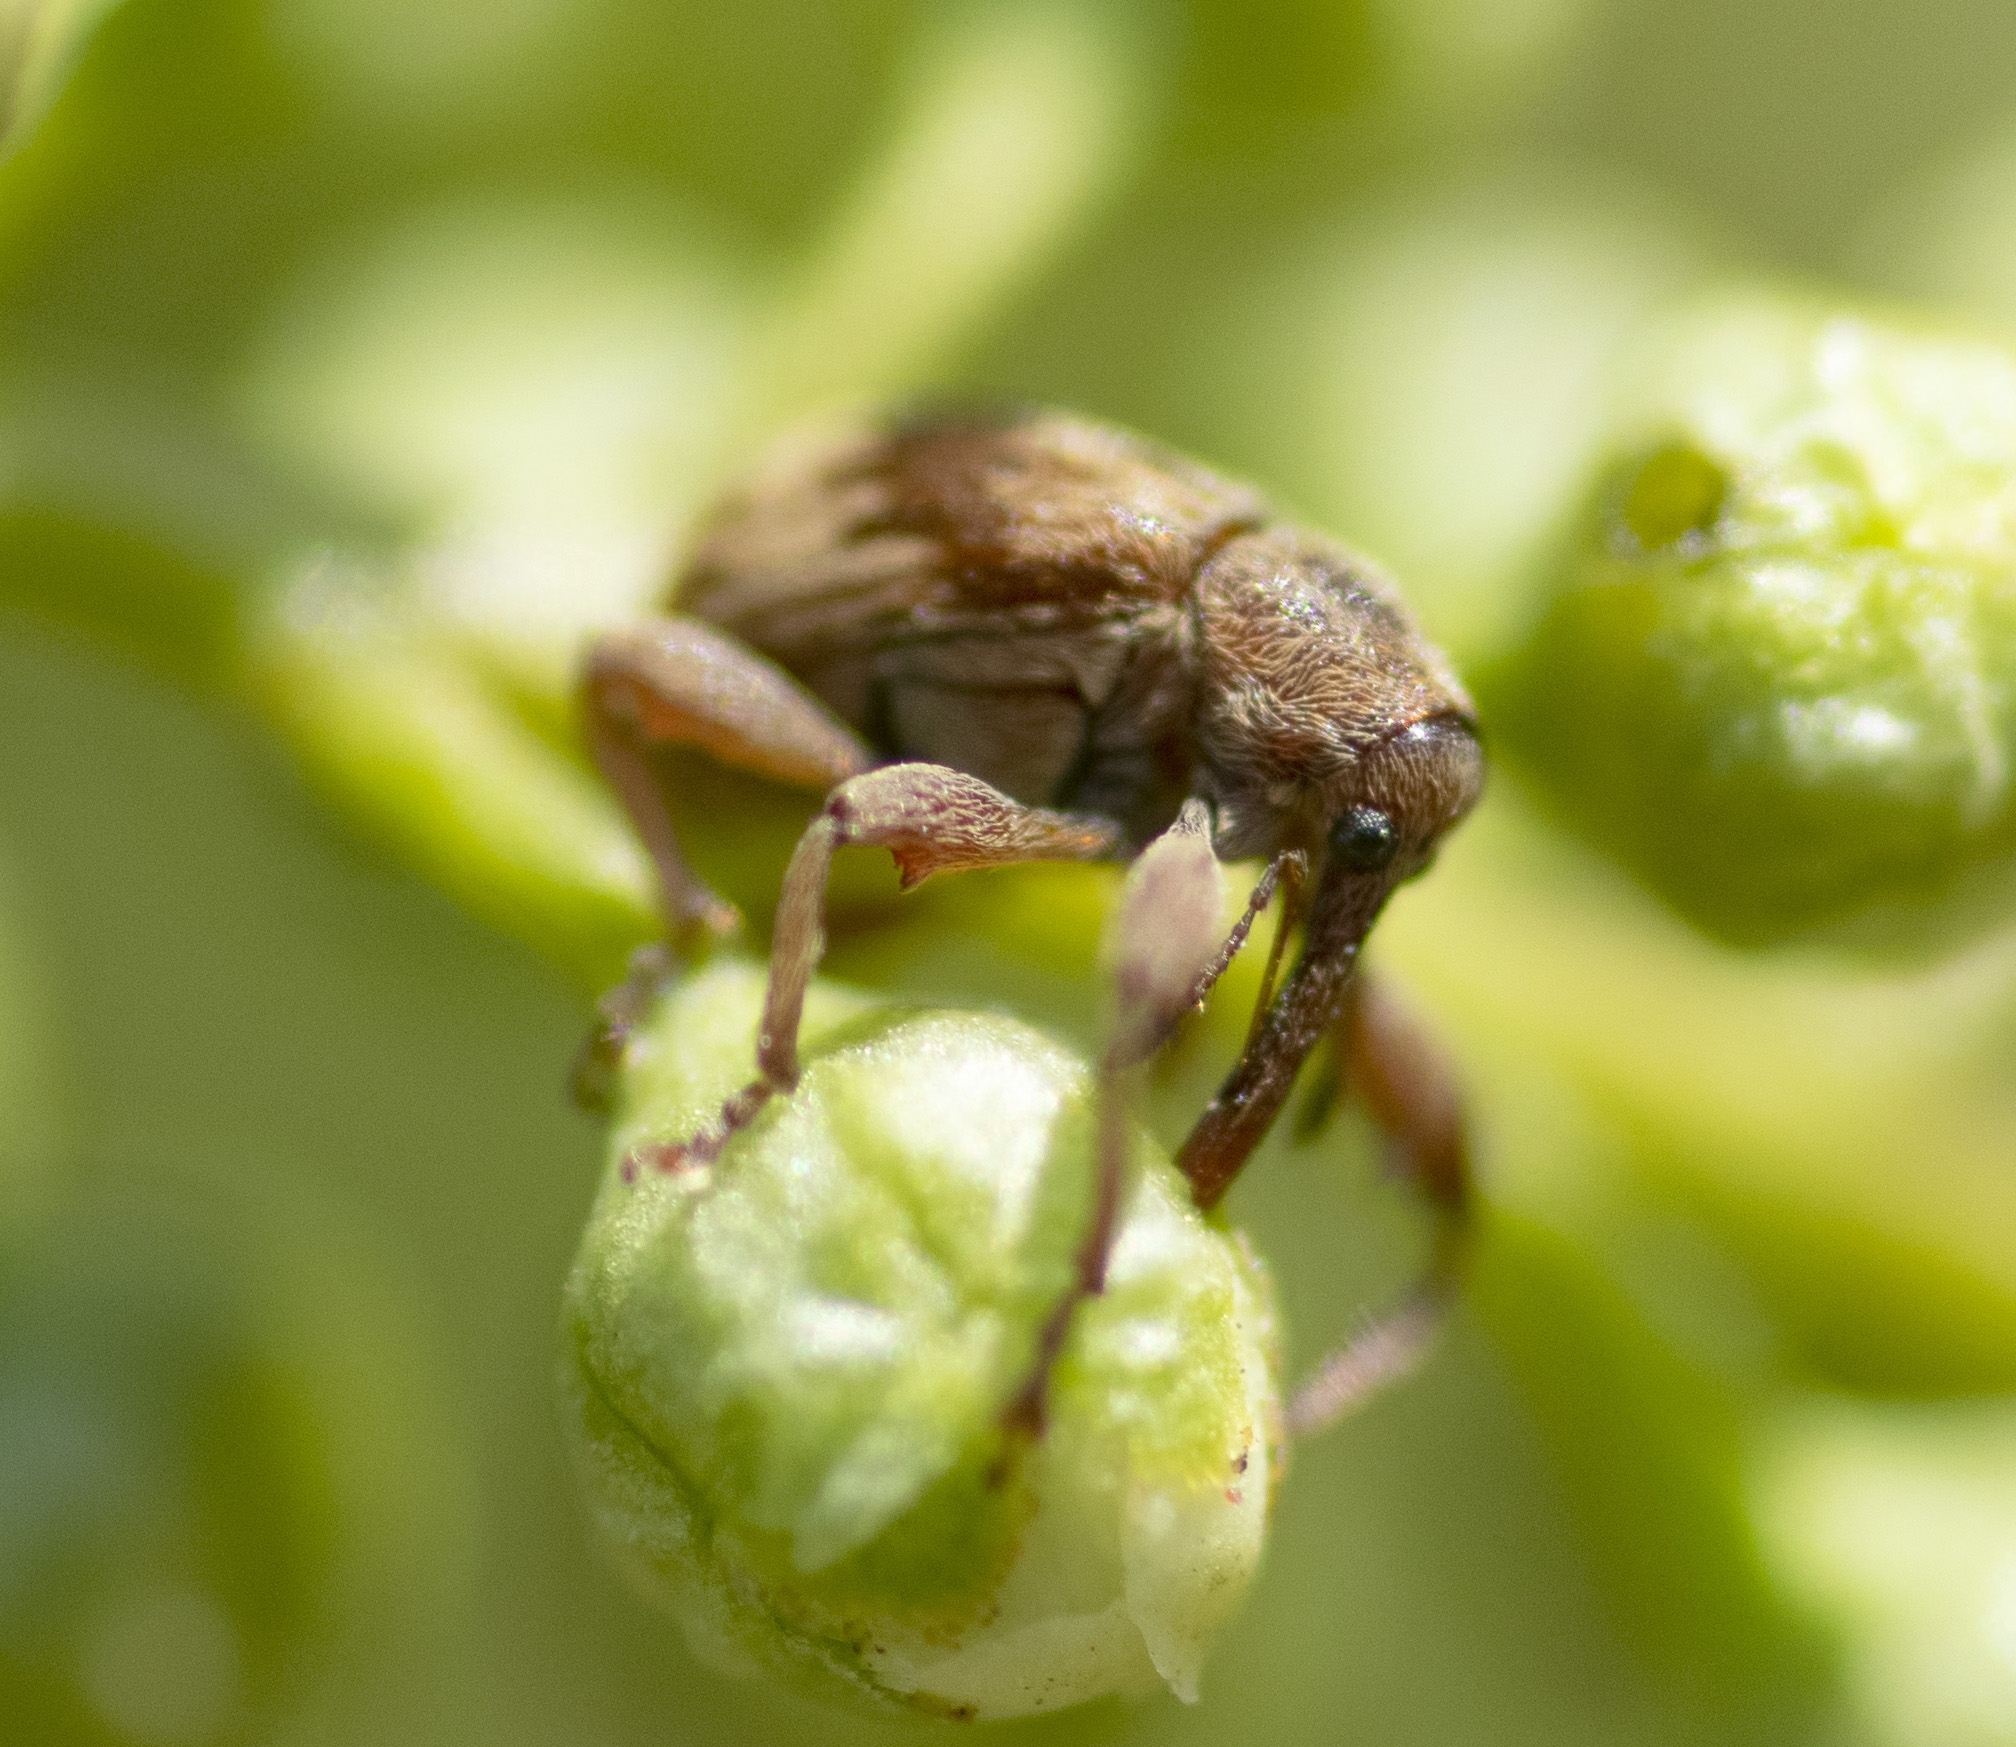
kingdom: Animalia
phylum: Arthropoda
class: Insecta
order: Coleoptera
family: Curculionidae
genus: Anthonomus
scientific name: Anthonomus rectirostris
